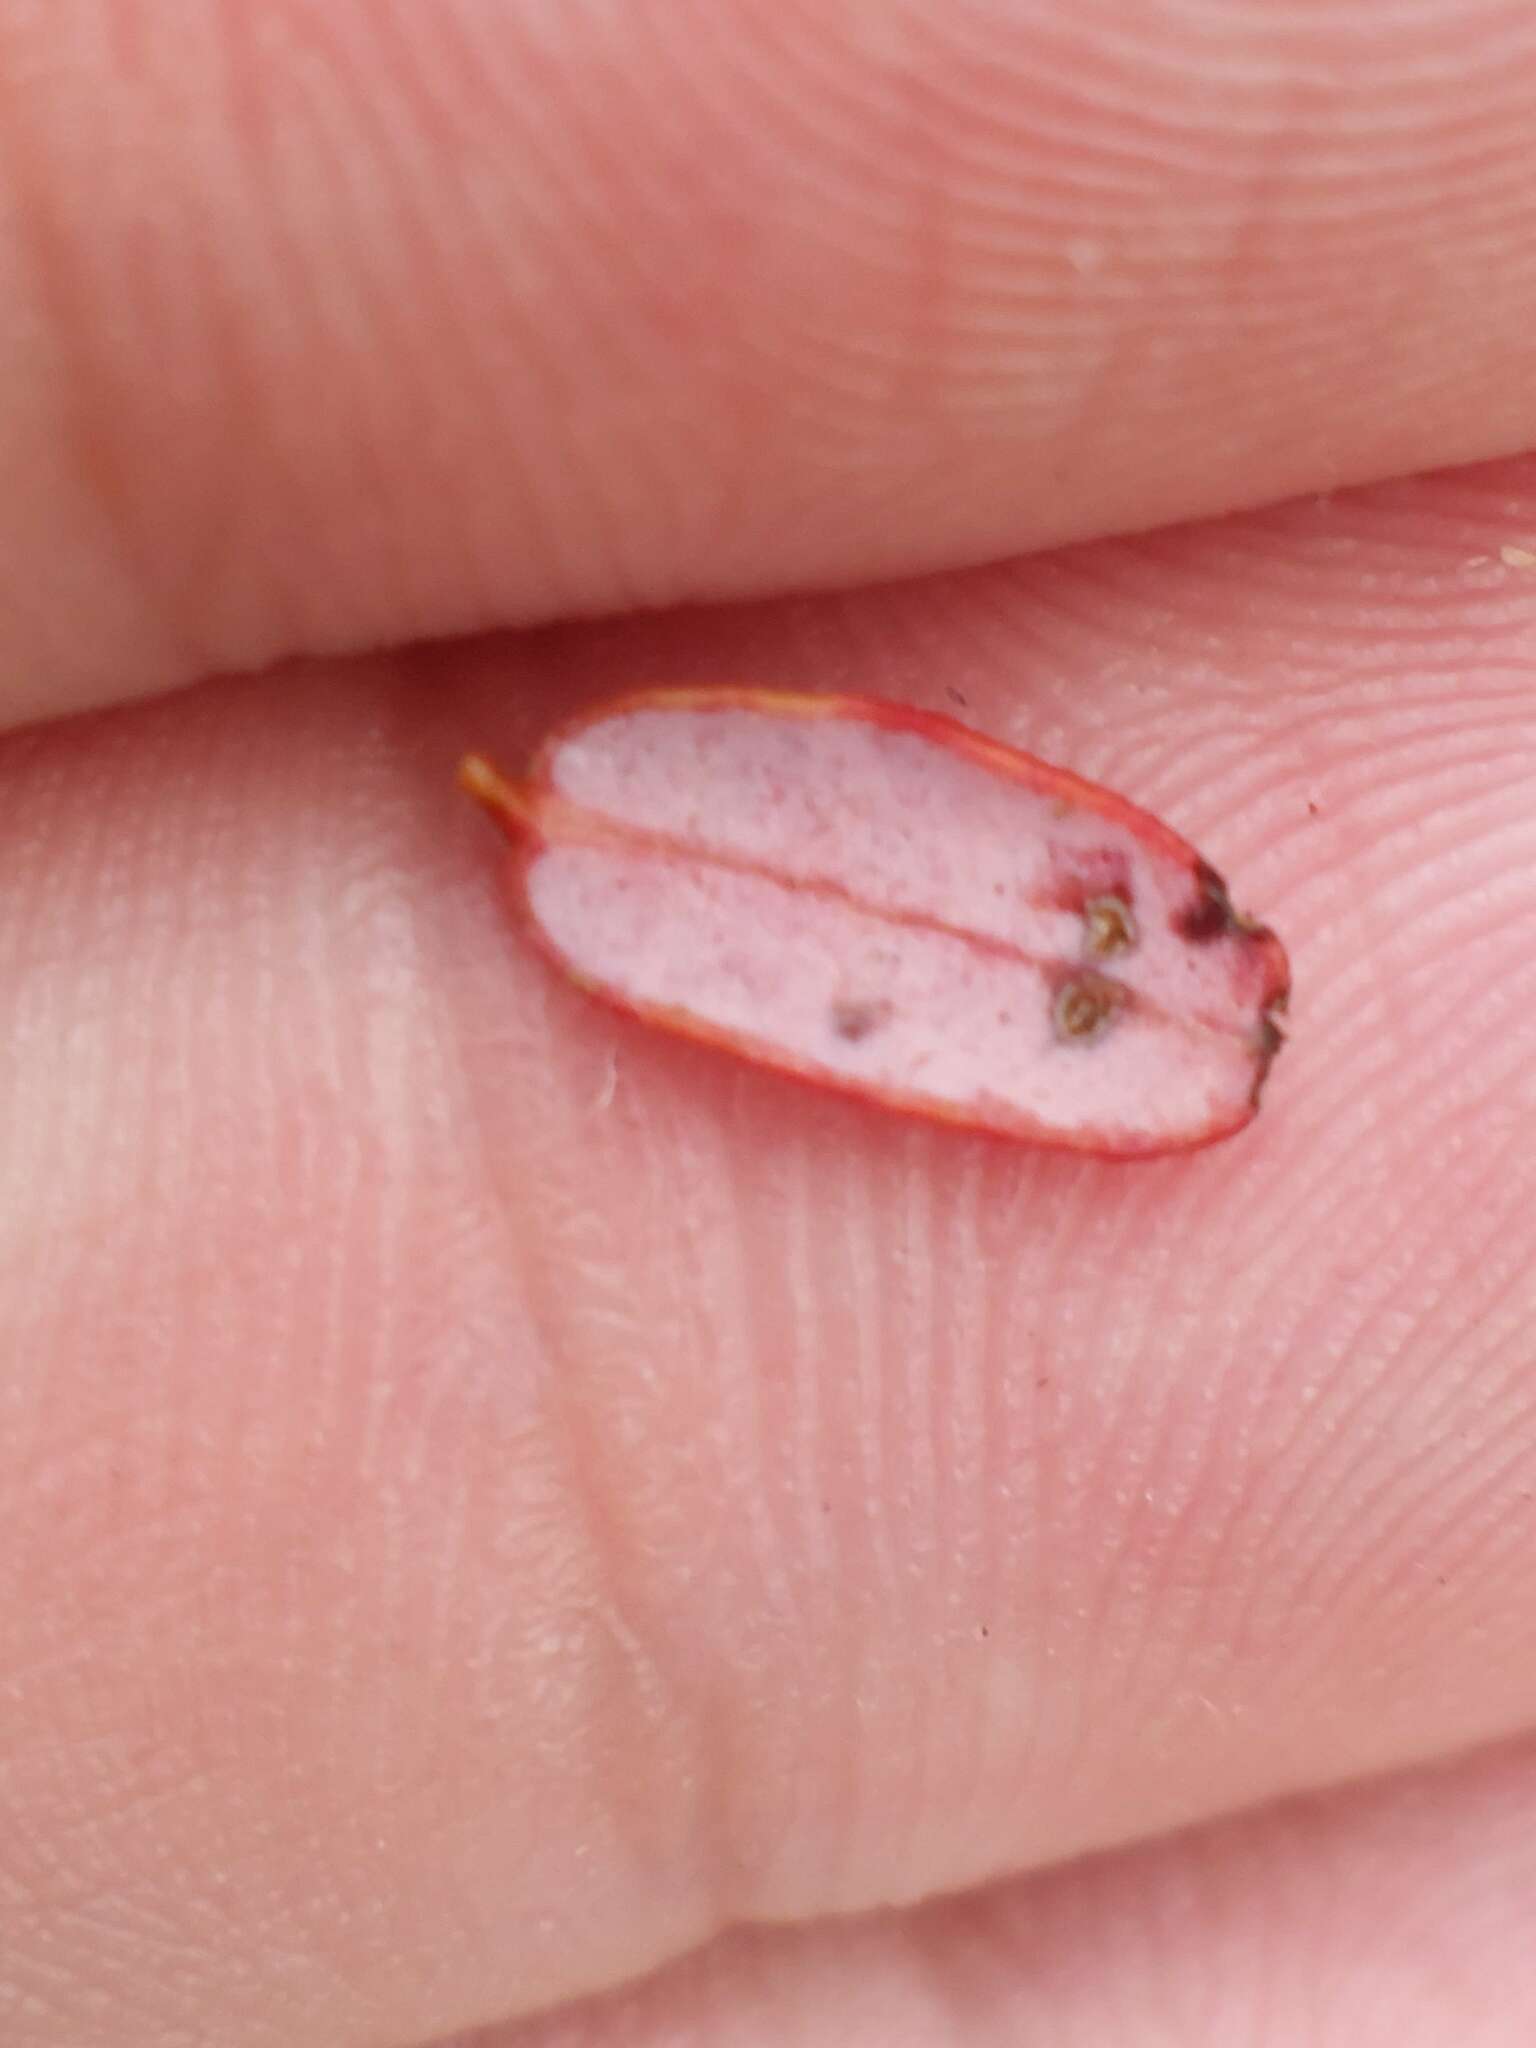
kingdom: Fungi
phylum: Basidiomycota
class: Exobasidiomycetes
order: Exobasidiales
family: Exobasidiaceae
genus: Exobasidium
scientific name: Exobasidium rostrupii
